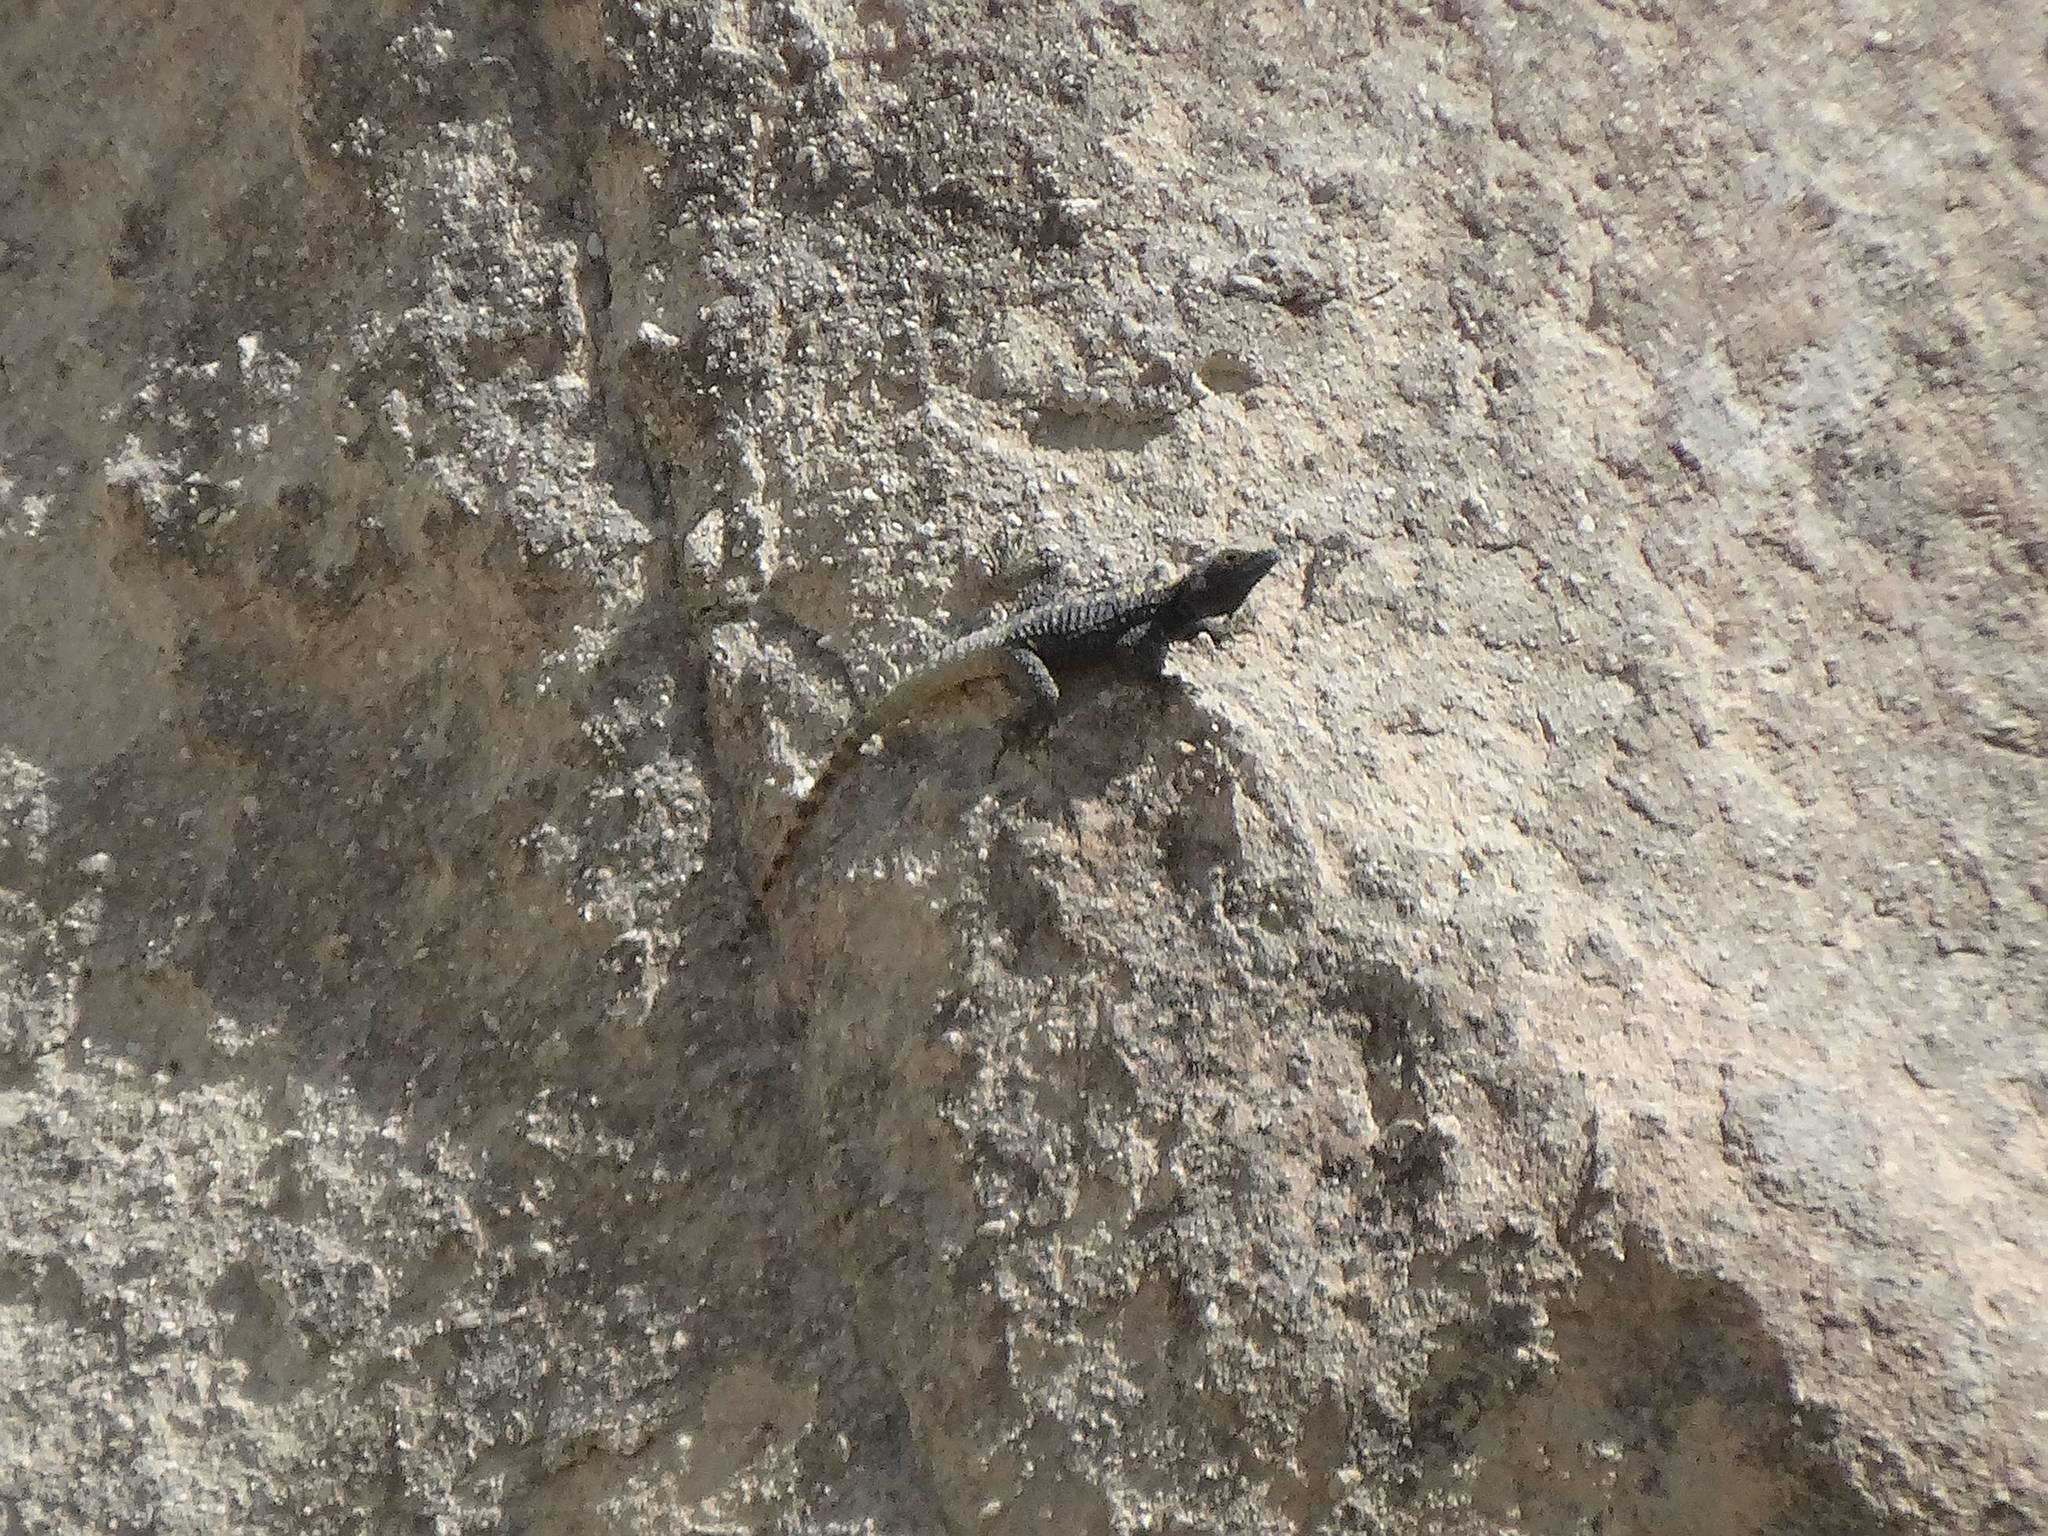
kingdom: Animalia
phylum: Chordata
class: Squamata
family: Agamidae
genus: Stellagama
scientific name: Stellagama stellio
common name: Starred agama
